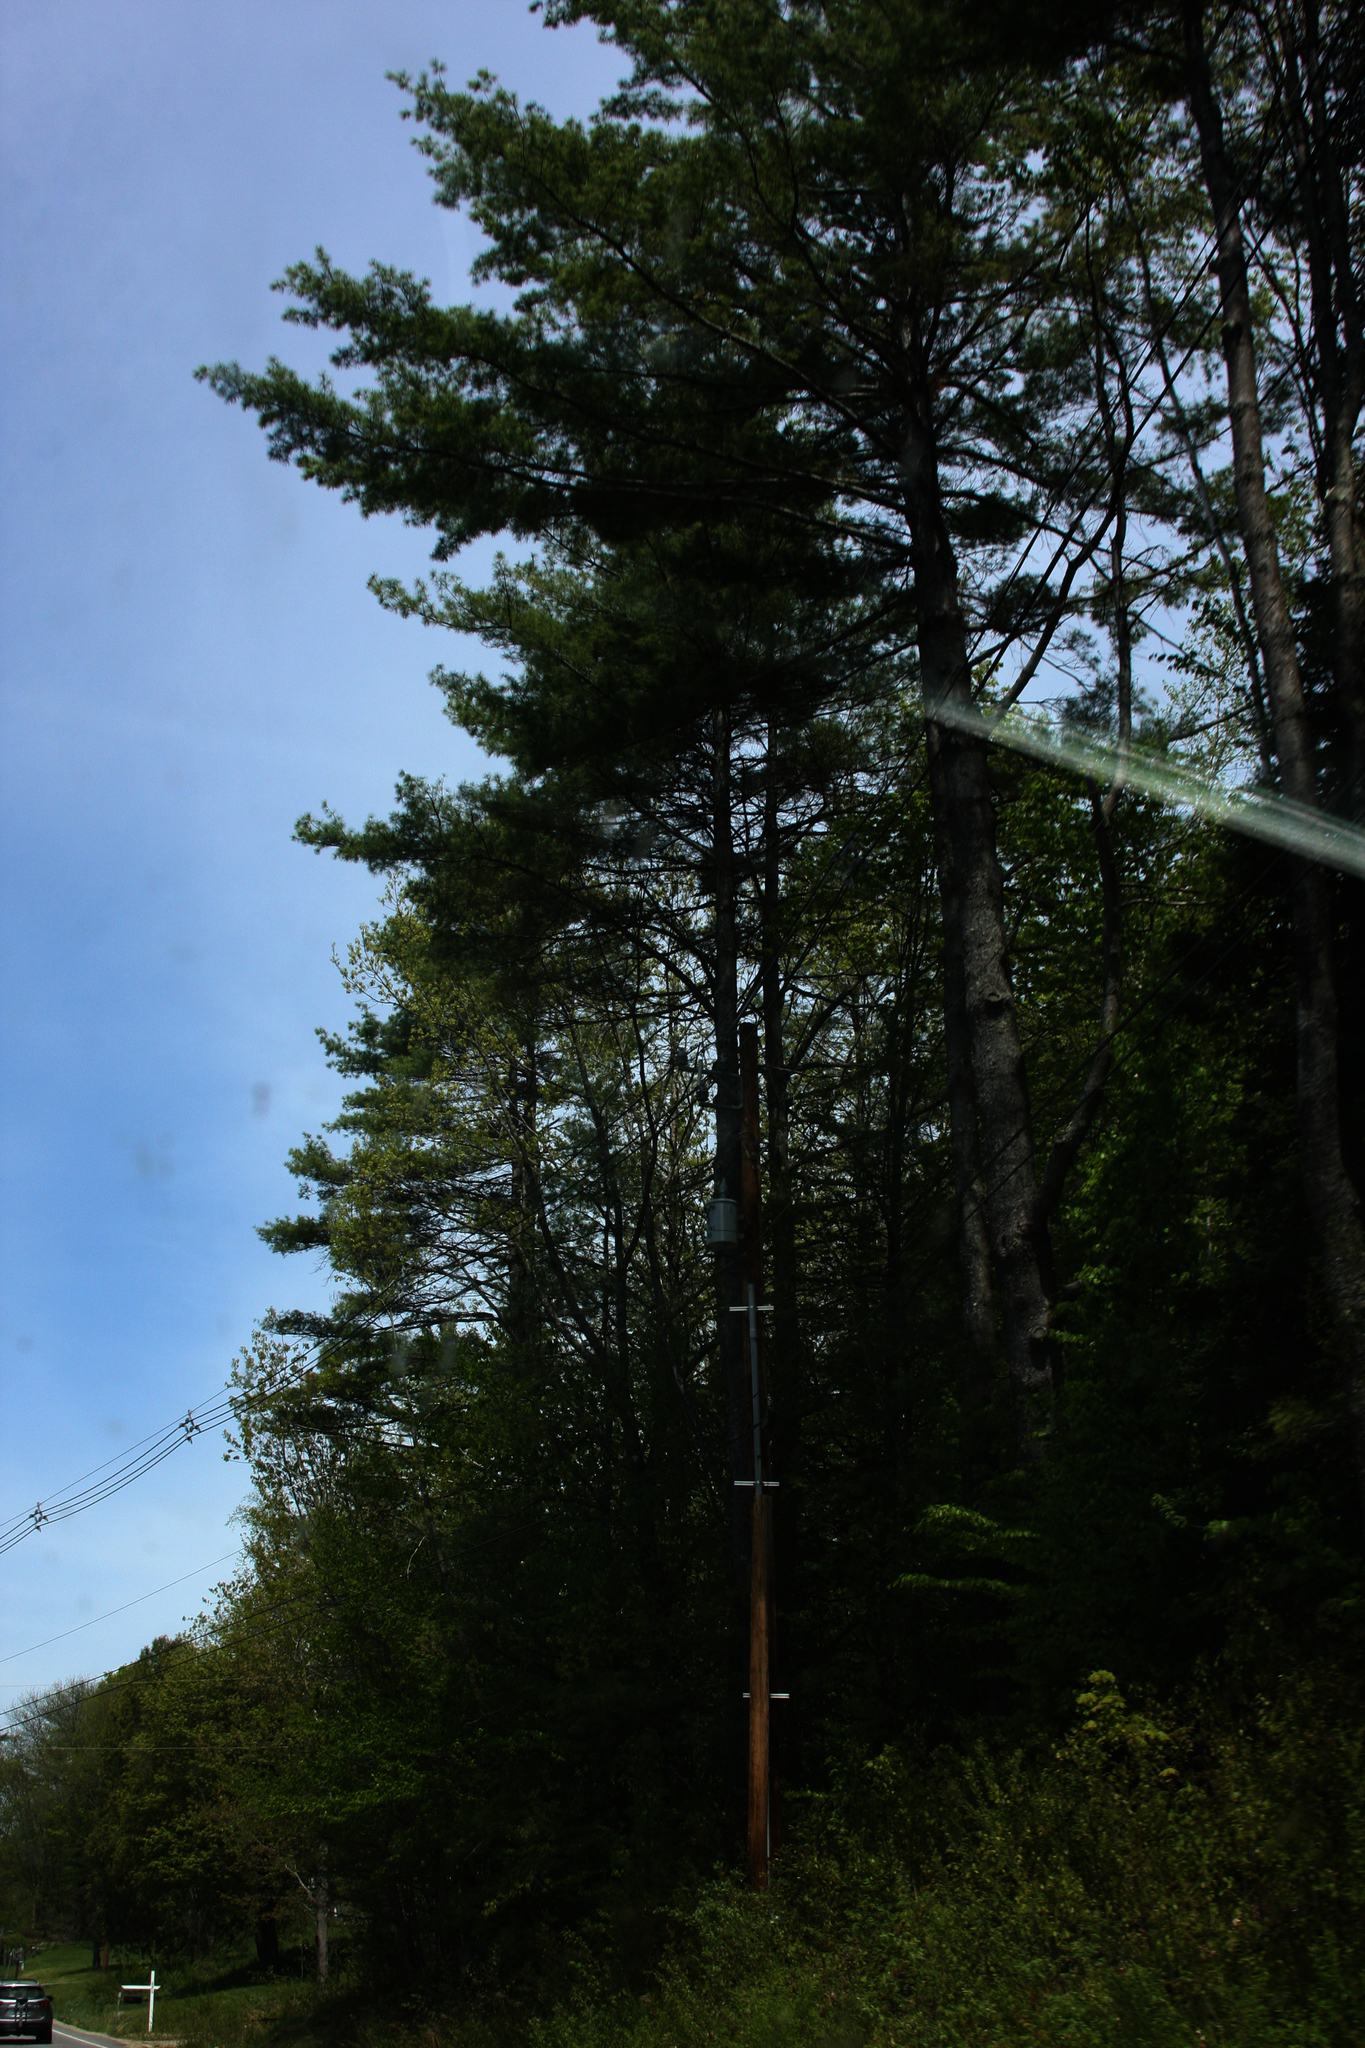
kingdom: Plantae
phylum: Tracheophyta
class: Pinopsida
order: Pinales
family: Pinaceae
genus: Pinus
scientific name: Pinus strobus
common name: Weymouth pine
